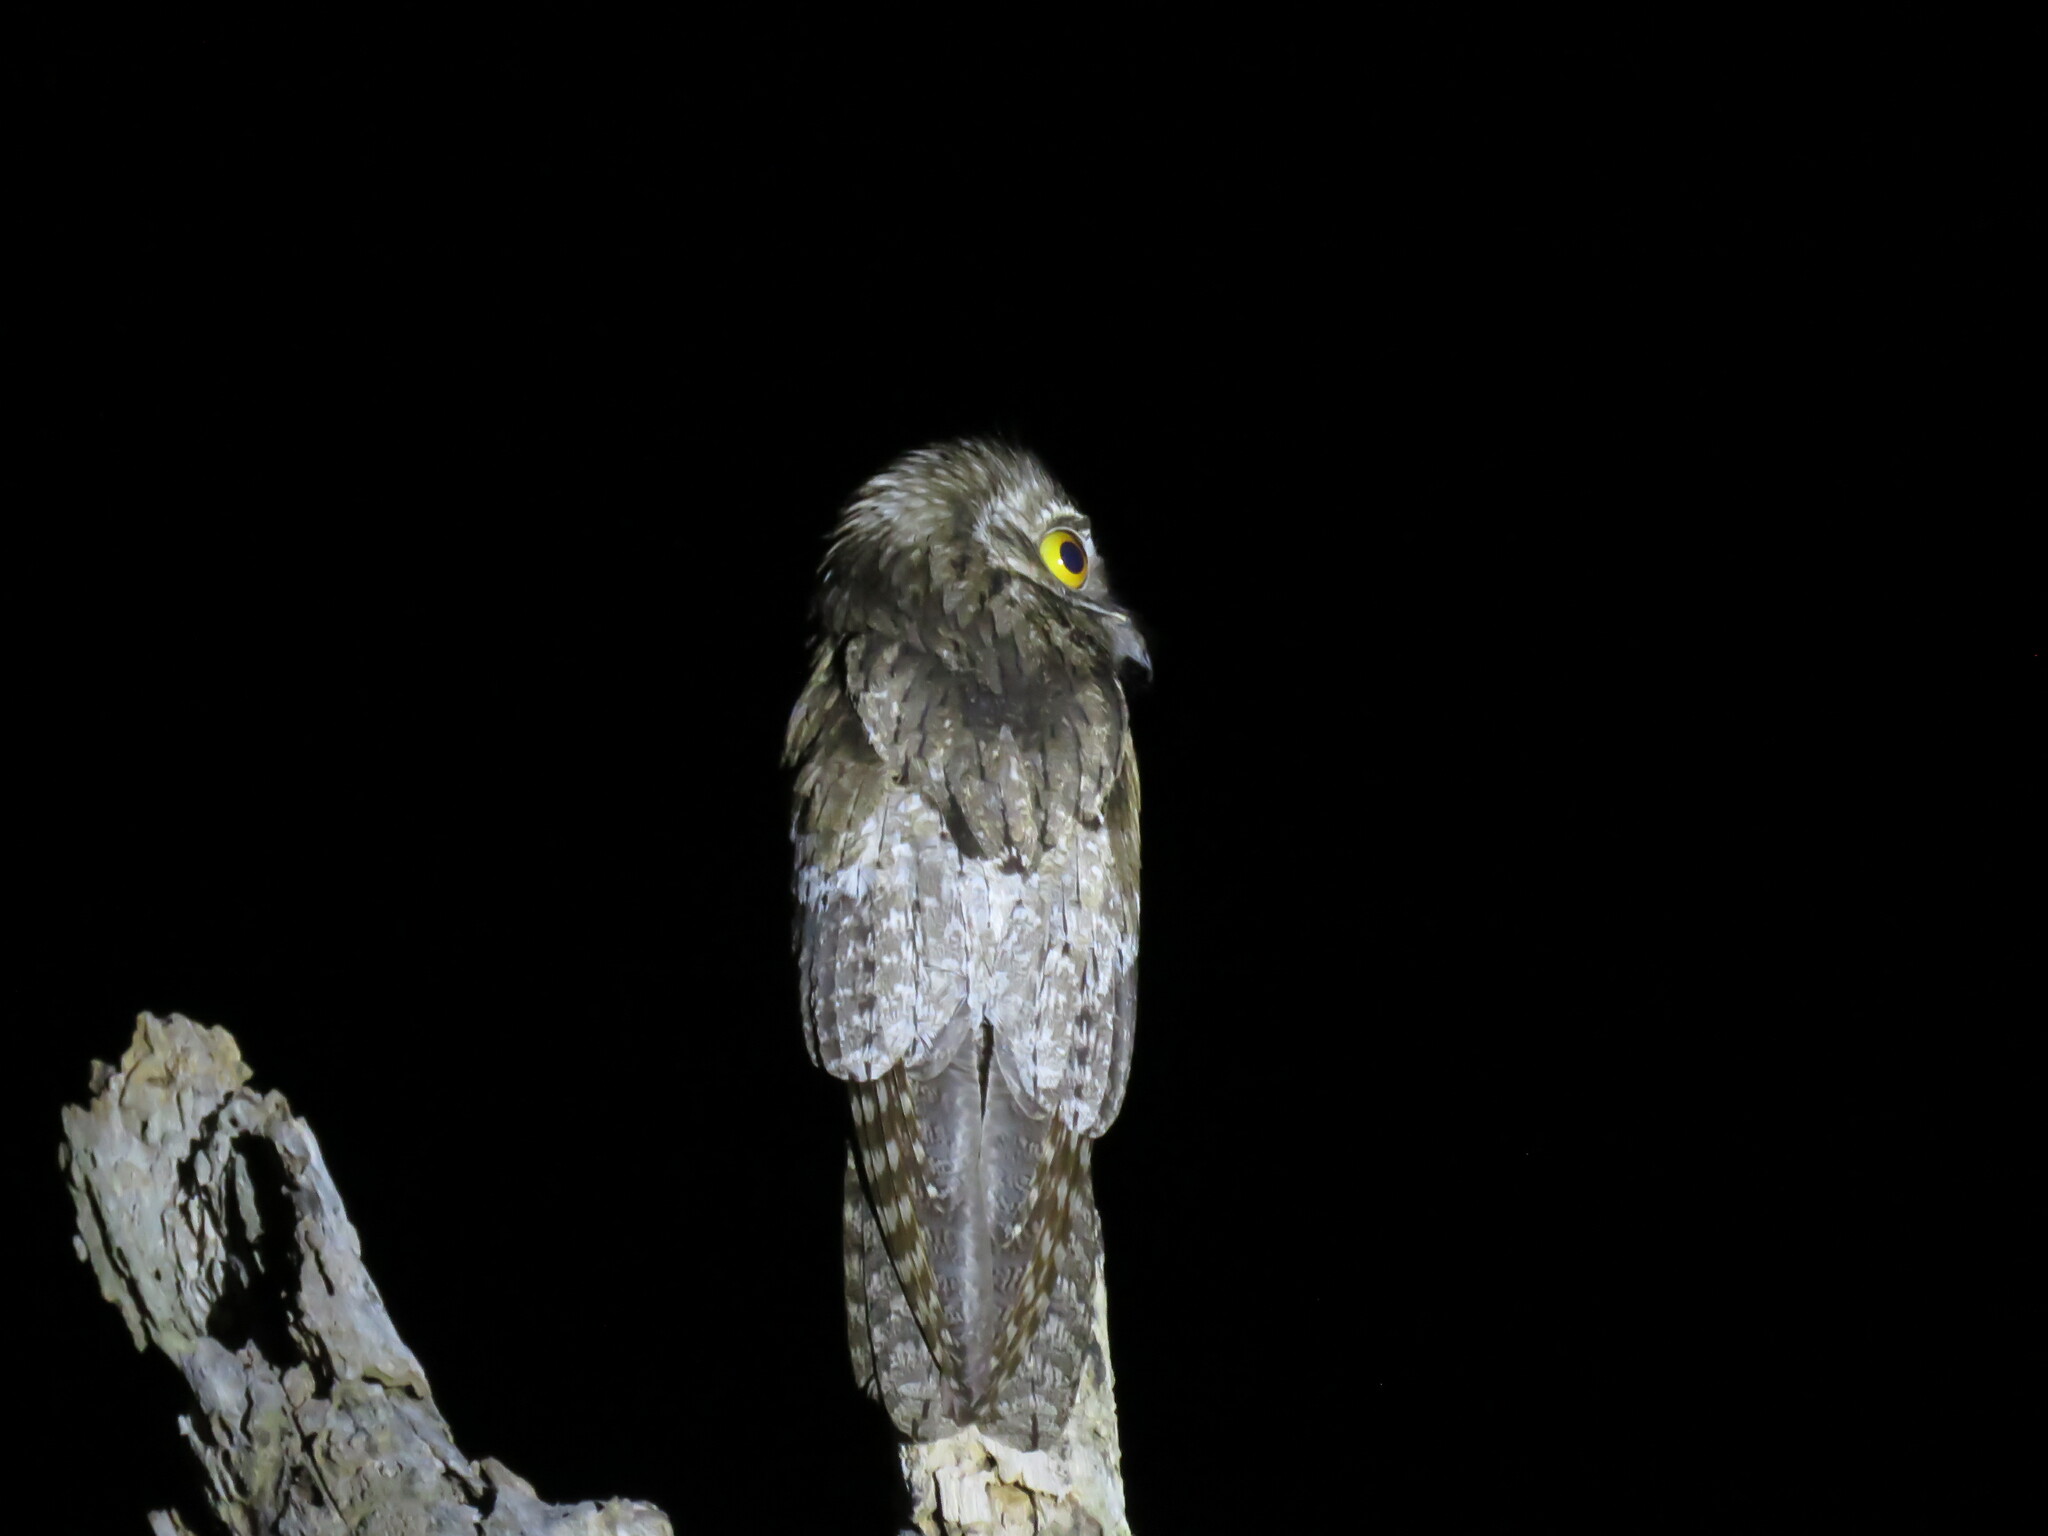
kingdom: Animalia
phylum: Chordata
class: Aves
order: Nyctibiiformes
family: Nyctibiidae
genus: Nyctibius
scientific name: Nyctibius jamaicensis
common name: Northern potoo
